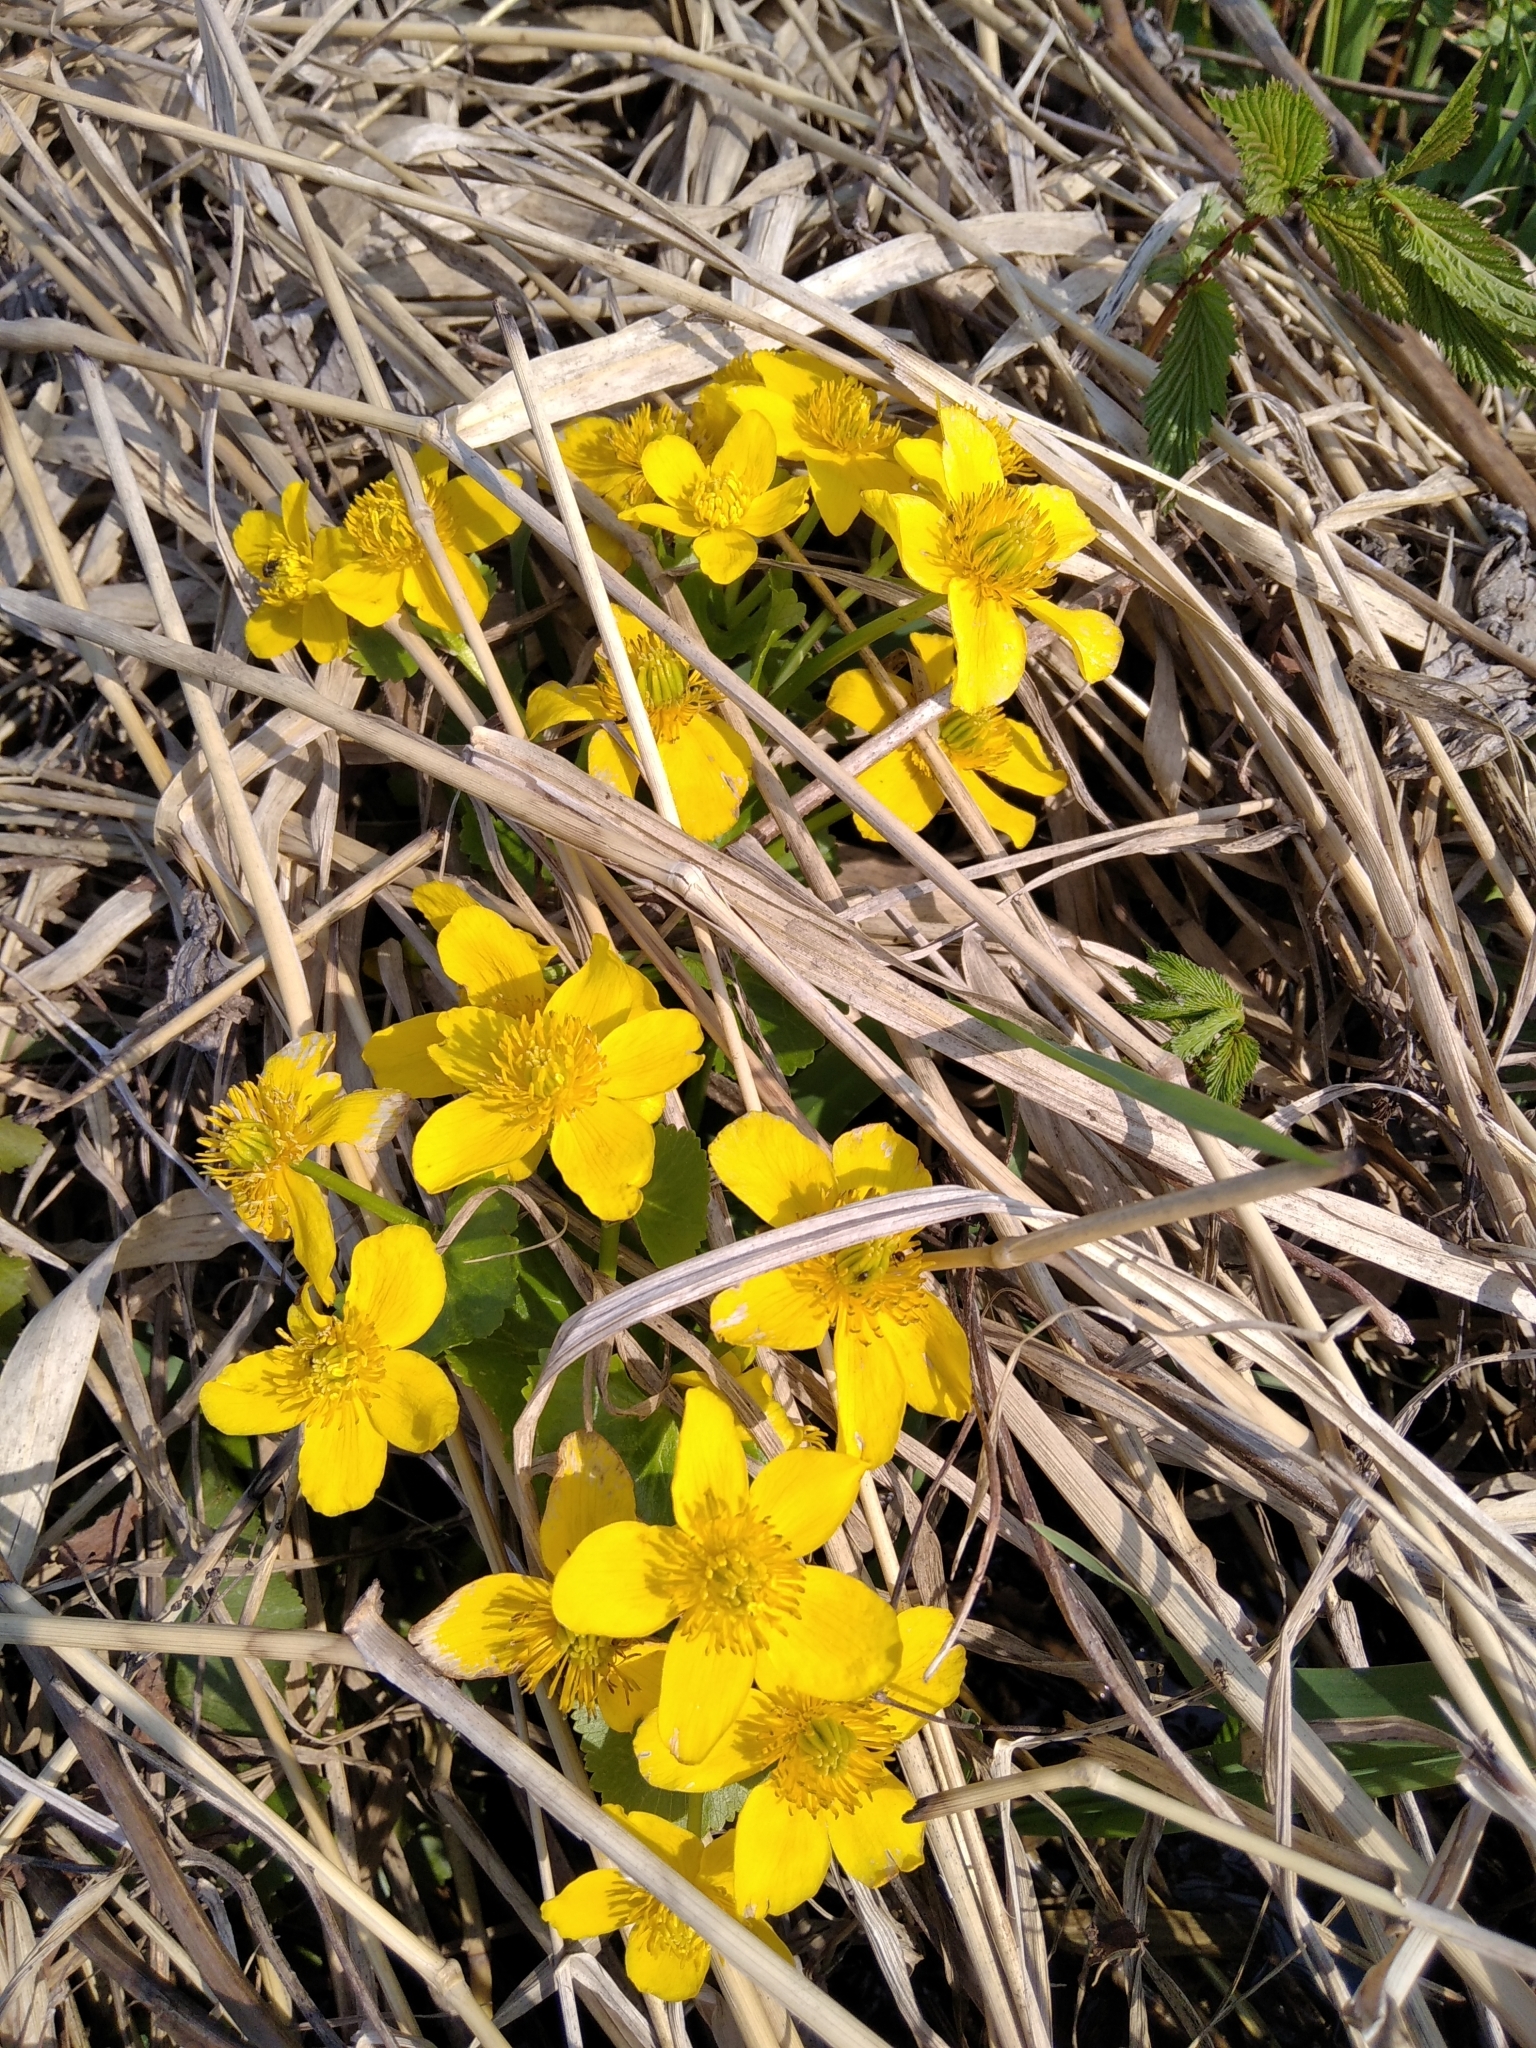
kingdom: Plantae
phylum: Tracheophyta
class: Magnoliopsida
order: Ranunculales
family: Ranunculaceae
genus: Caltha
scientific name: Caltha palustris
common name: Marsh marigold
